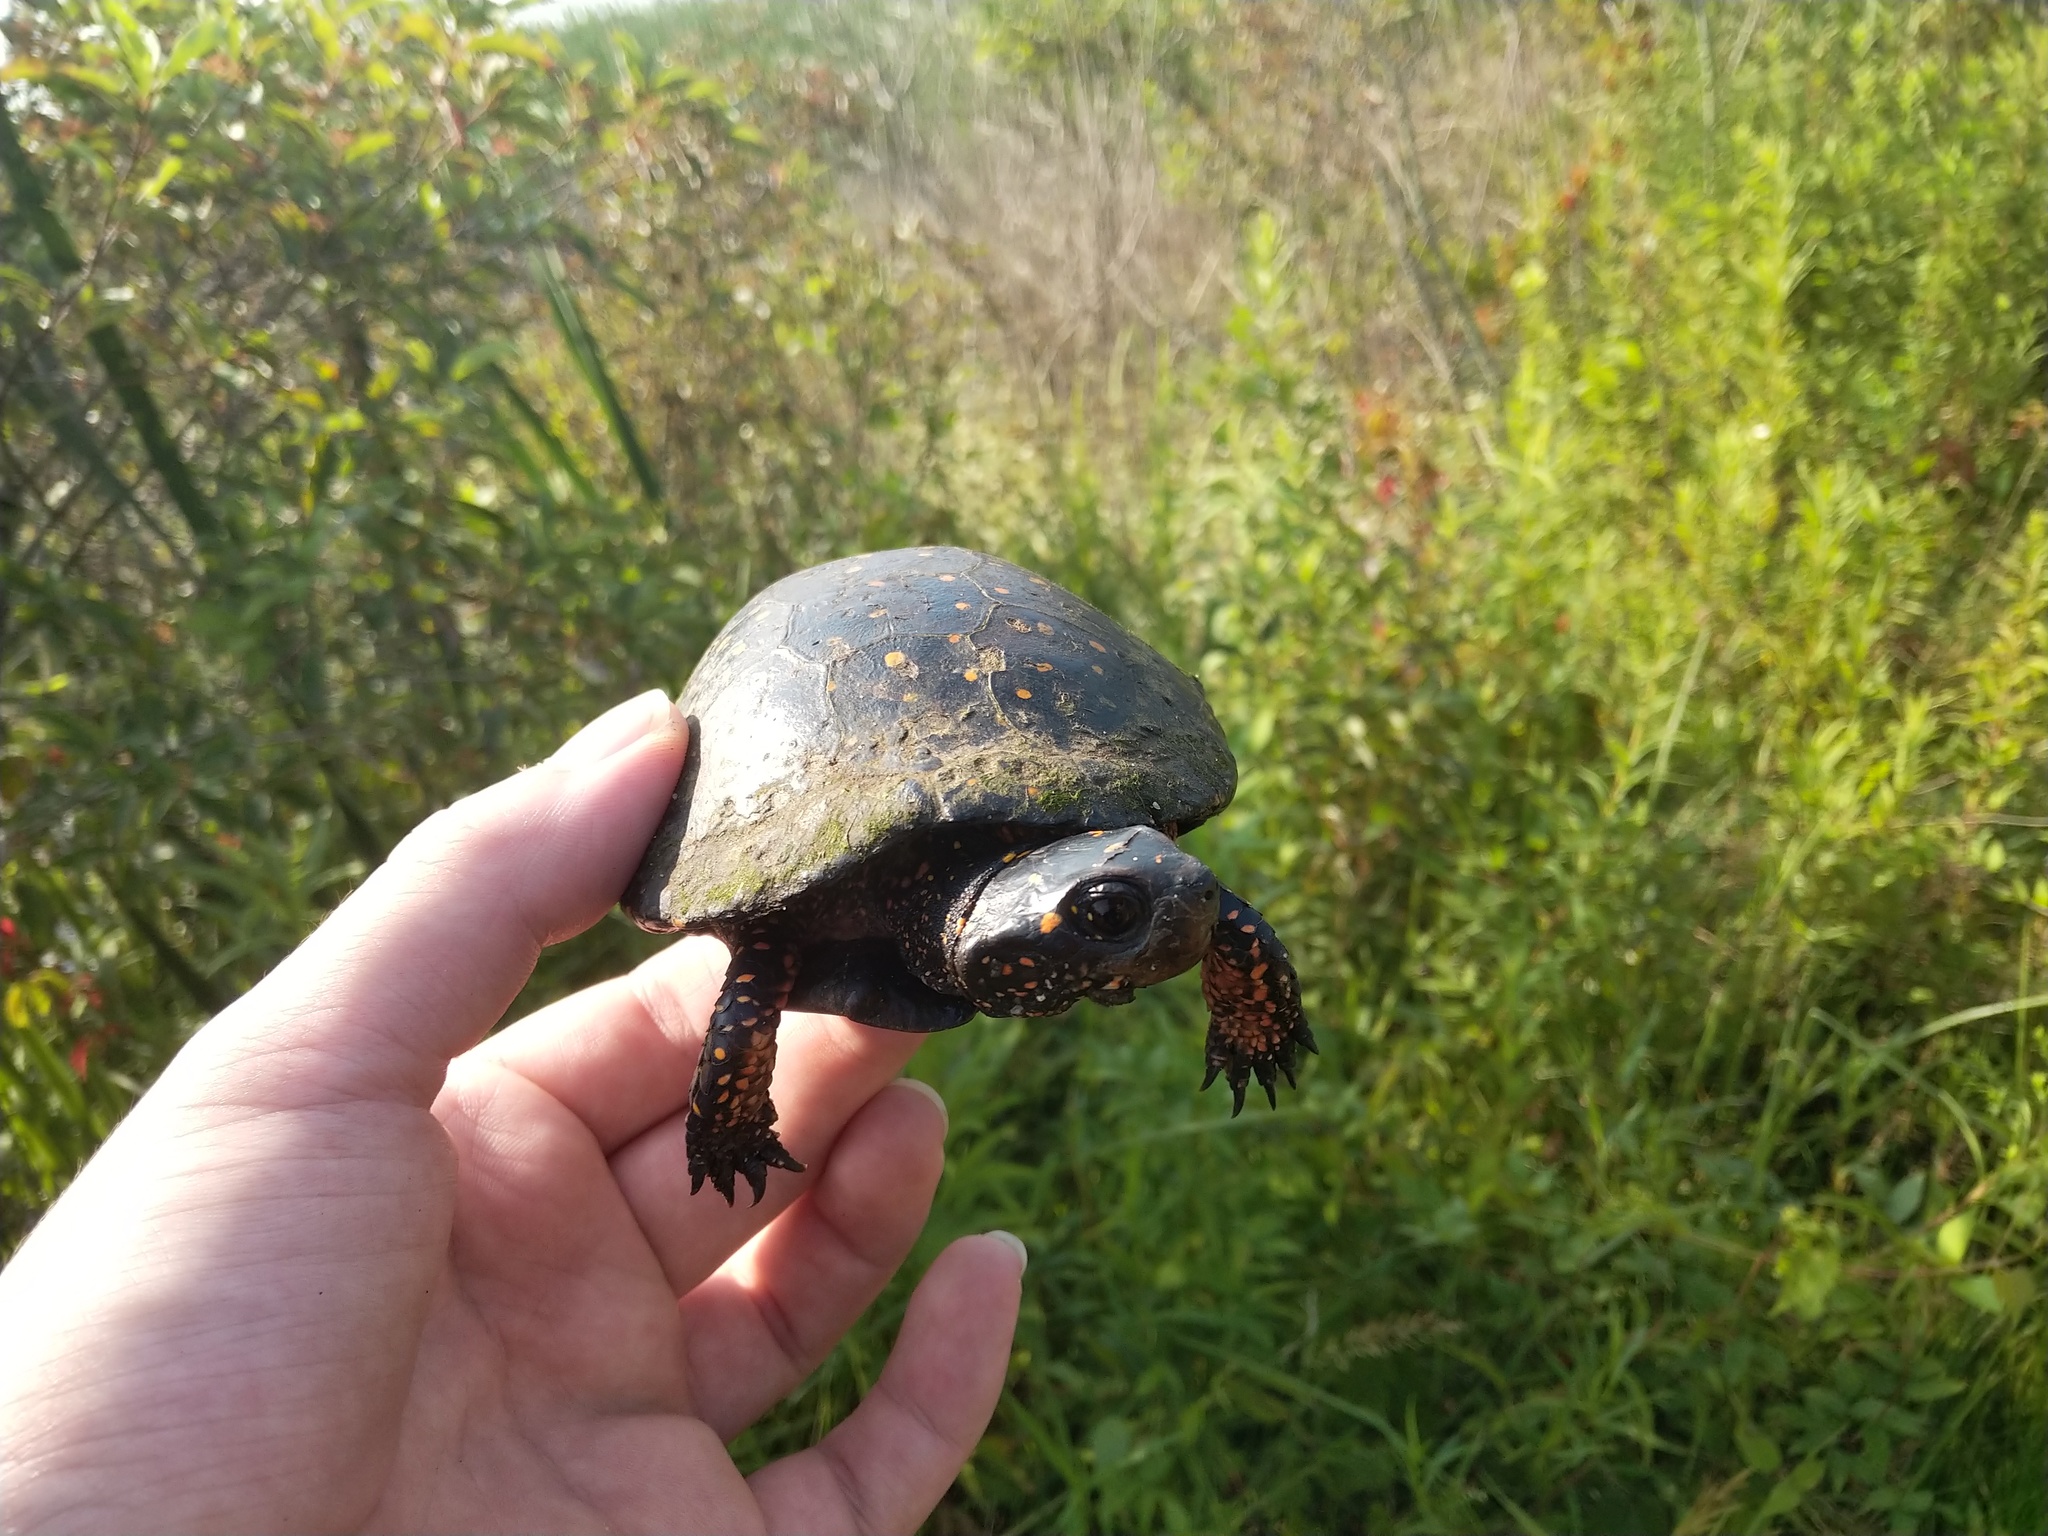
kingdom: Animalia
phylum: Chordata
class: Testudines
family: Emydidae
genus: Clemmys
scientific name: Clemmys guttata
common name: Spotted turtle
